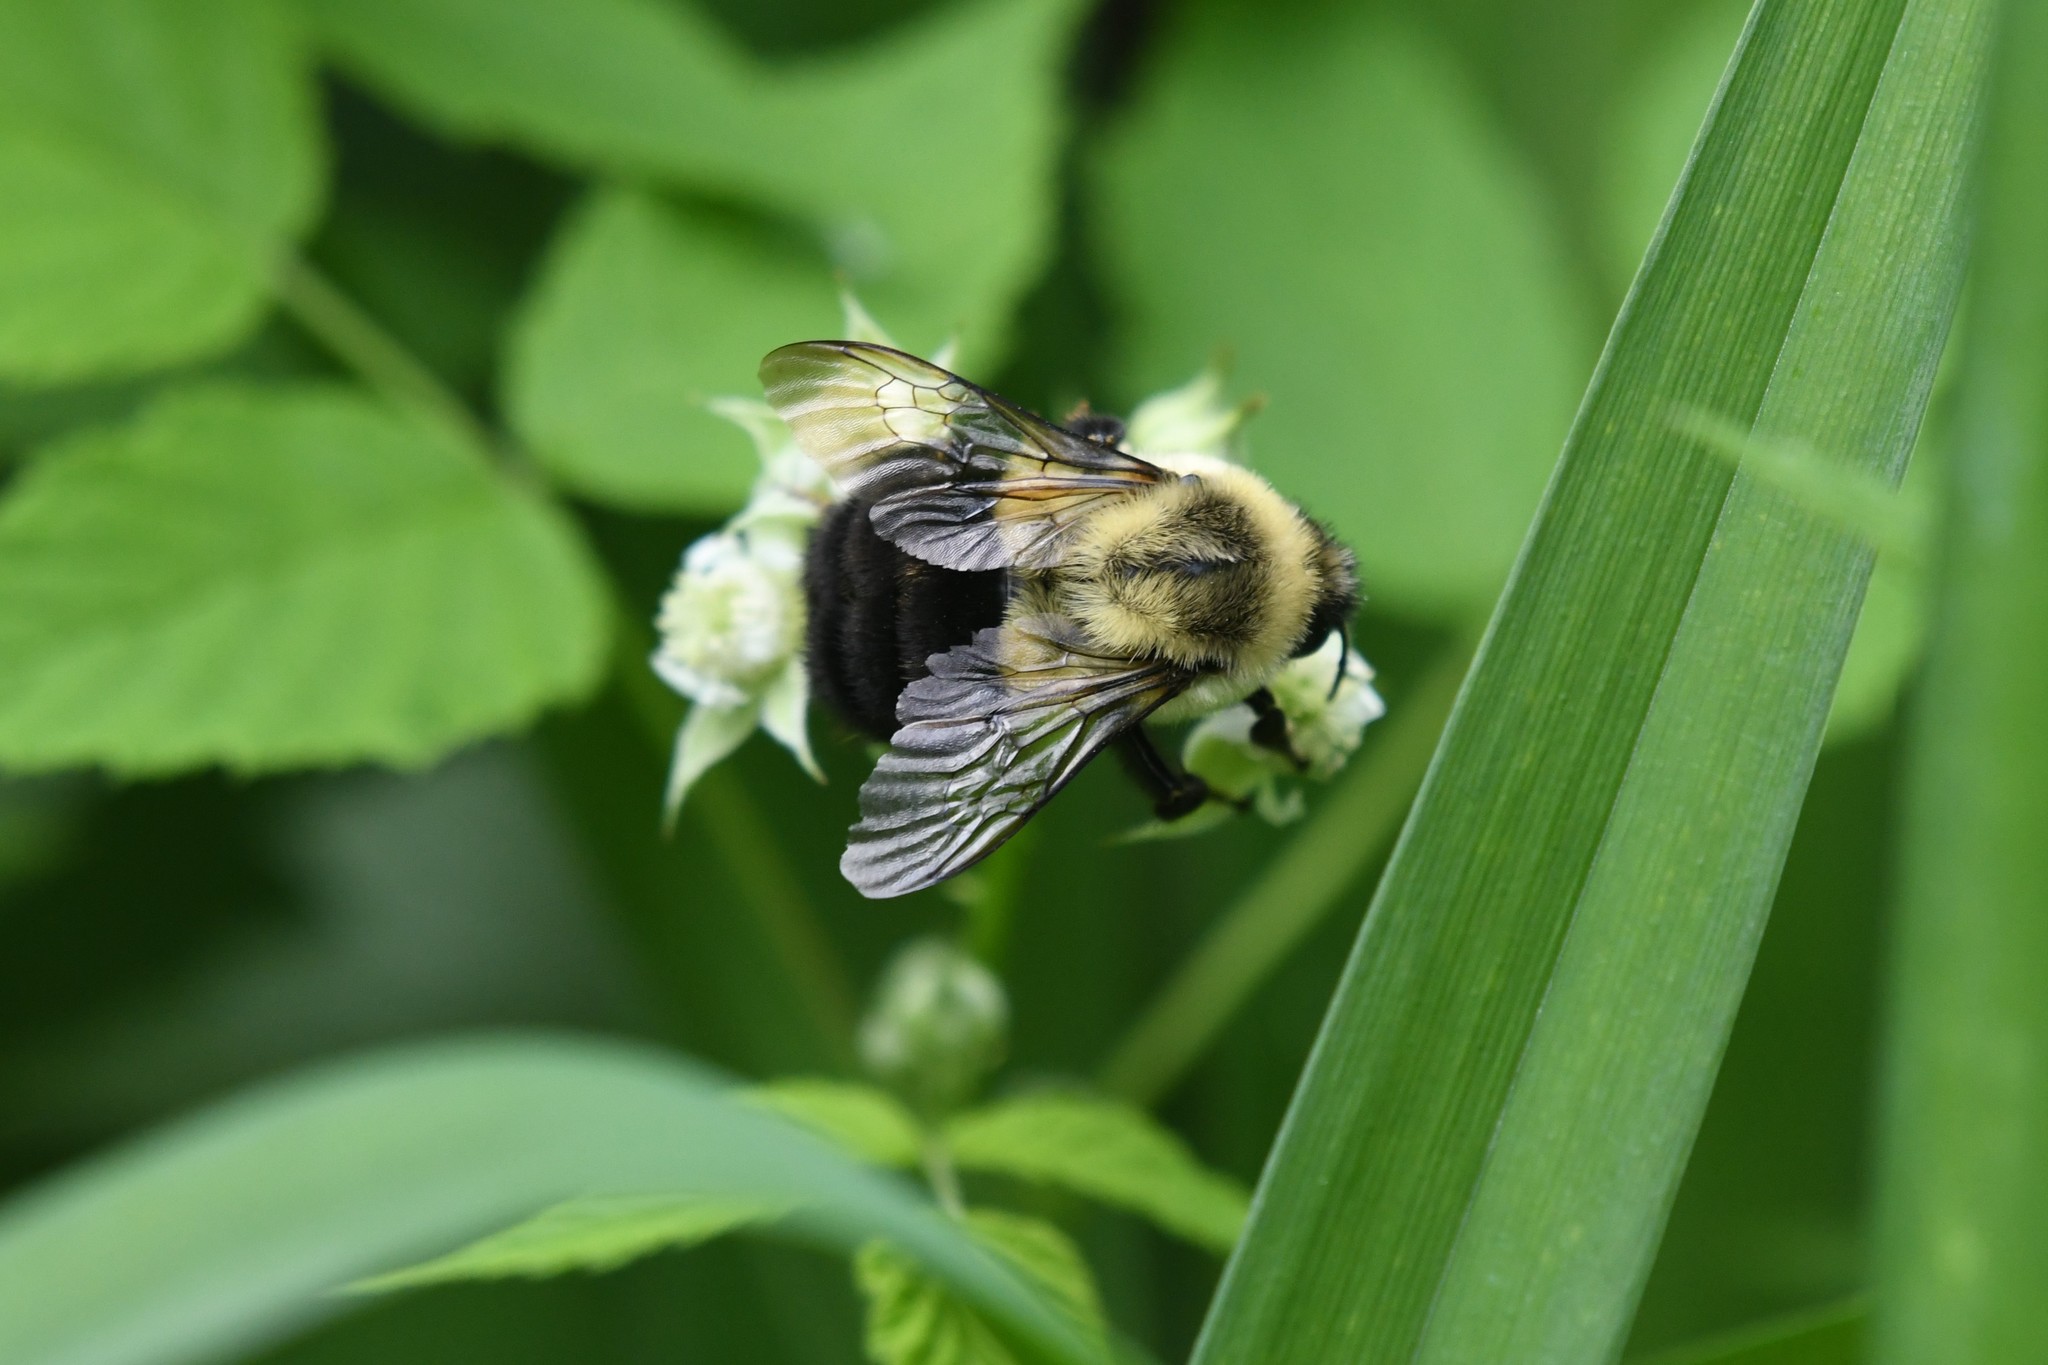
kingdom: Animalia
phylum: Arthropoda
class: Insecta
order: Hymenoptera
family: Apidae
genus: Bombus
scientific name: Bombus impatiens
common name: Common eastern bumble bee
